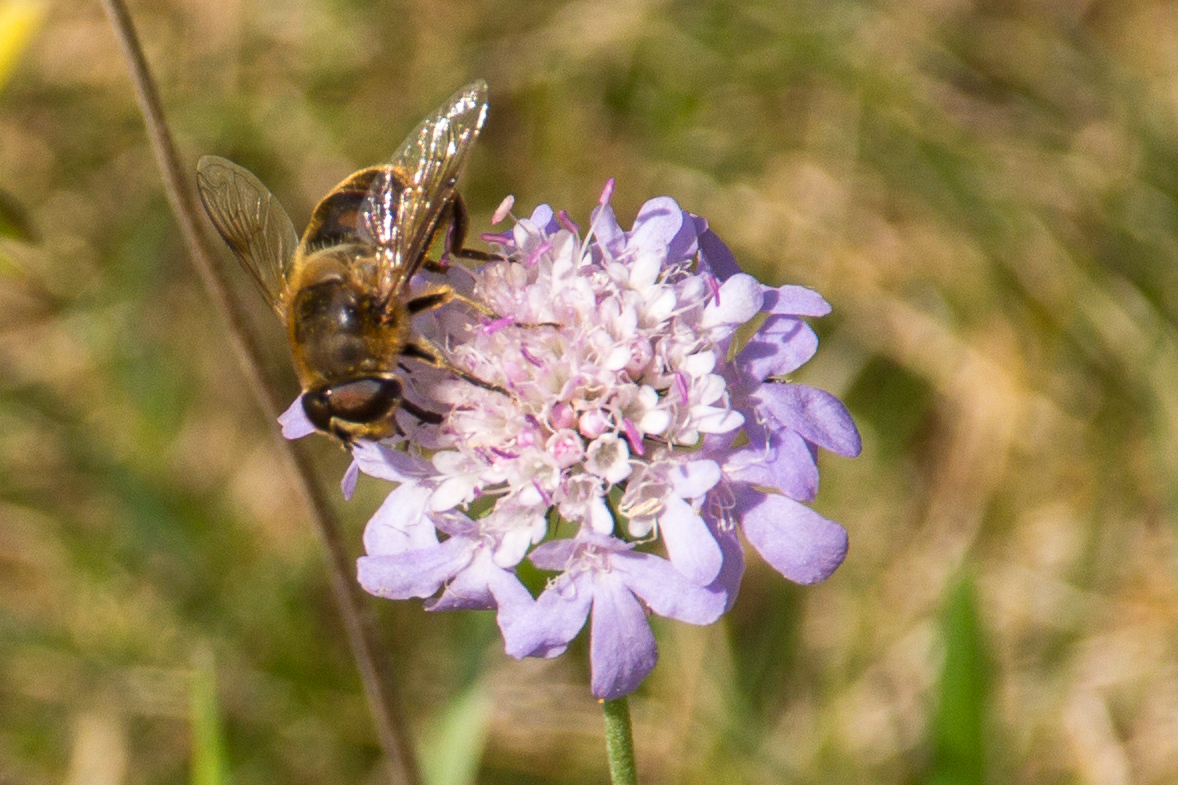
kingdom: Animalia
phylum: Arthropoda
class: Insecta
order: Diptera
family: Syrphidae
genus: Eristalis
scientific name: Eristalis tenax
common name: Drone fly
